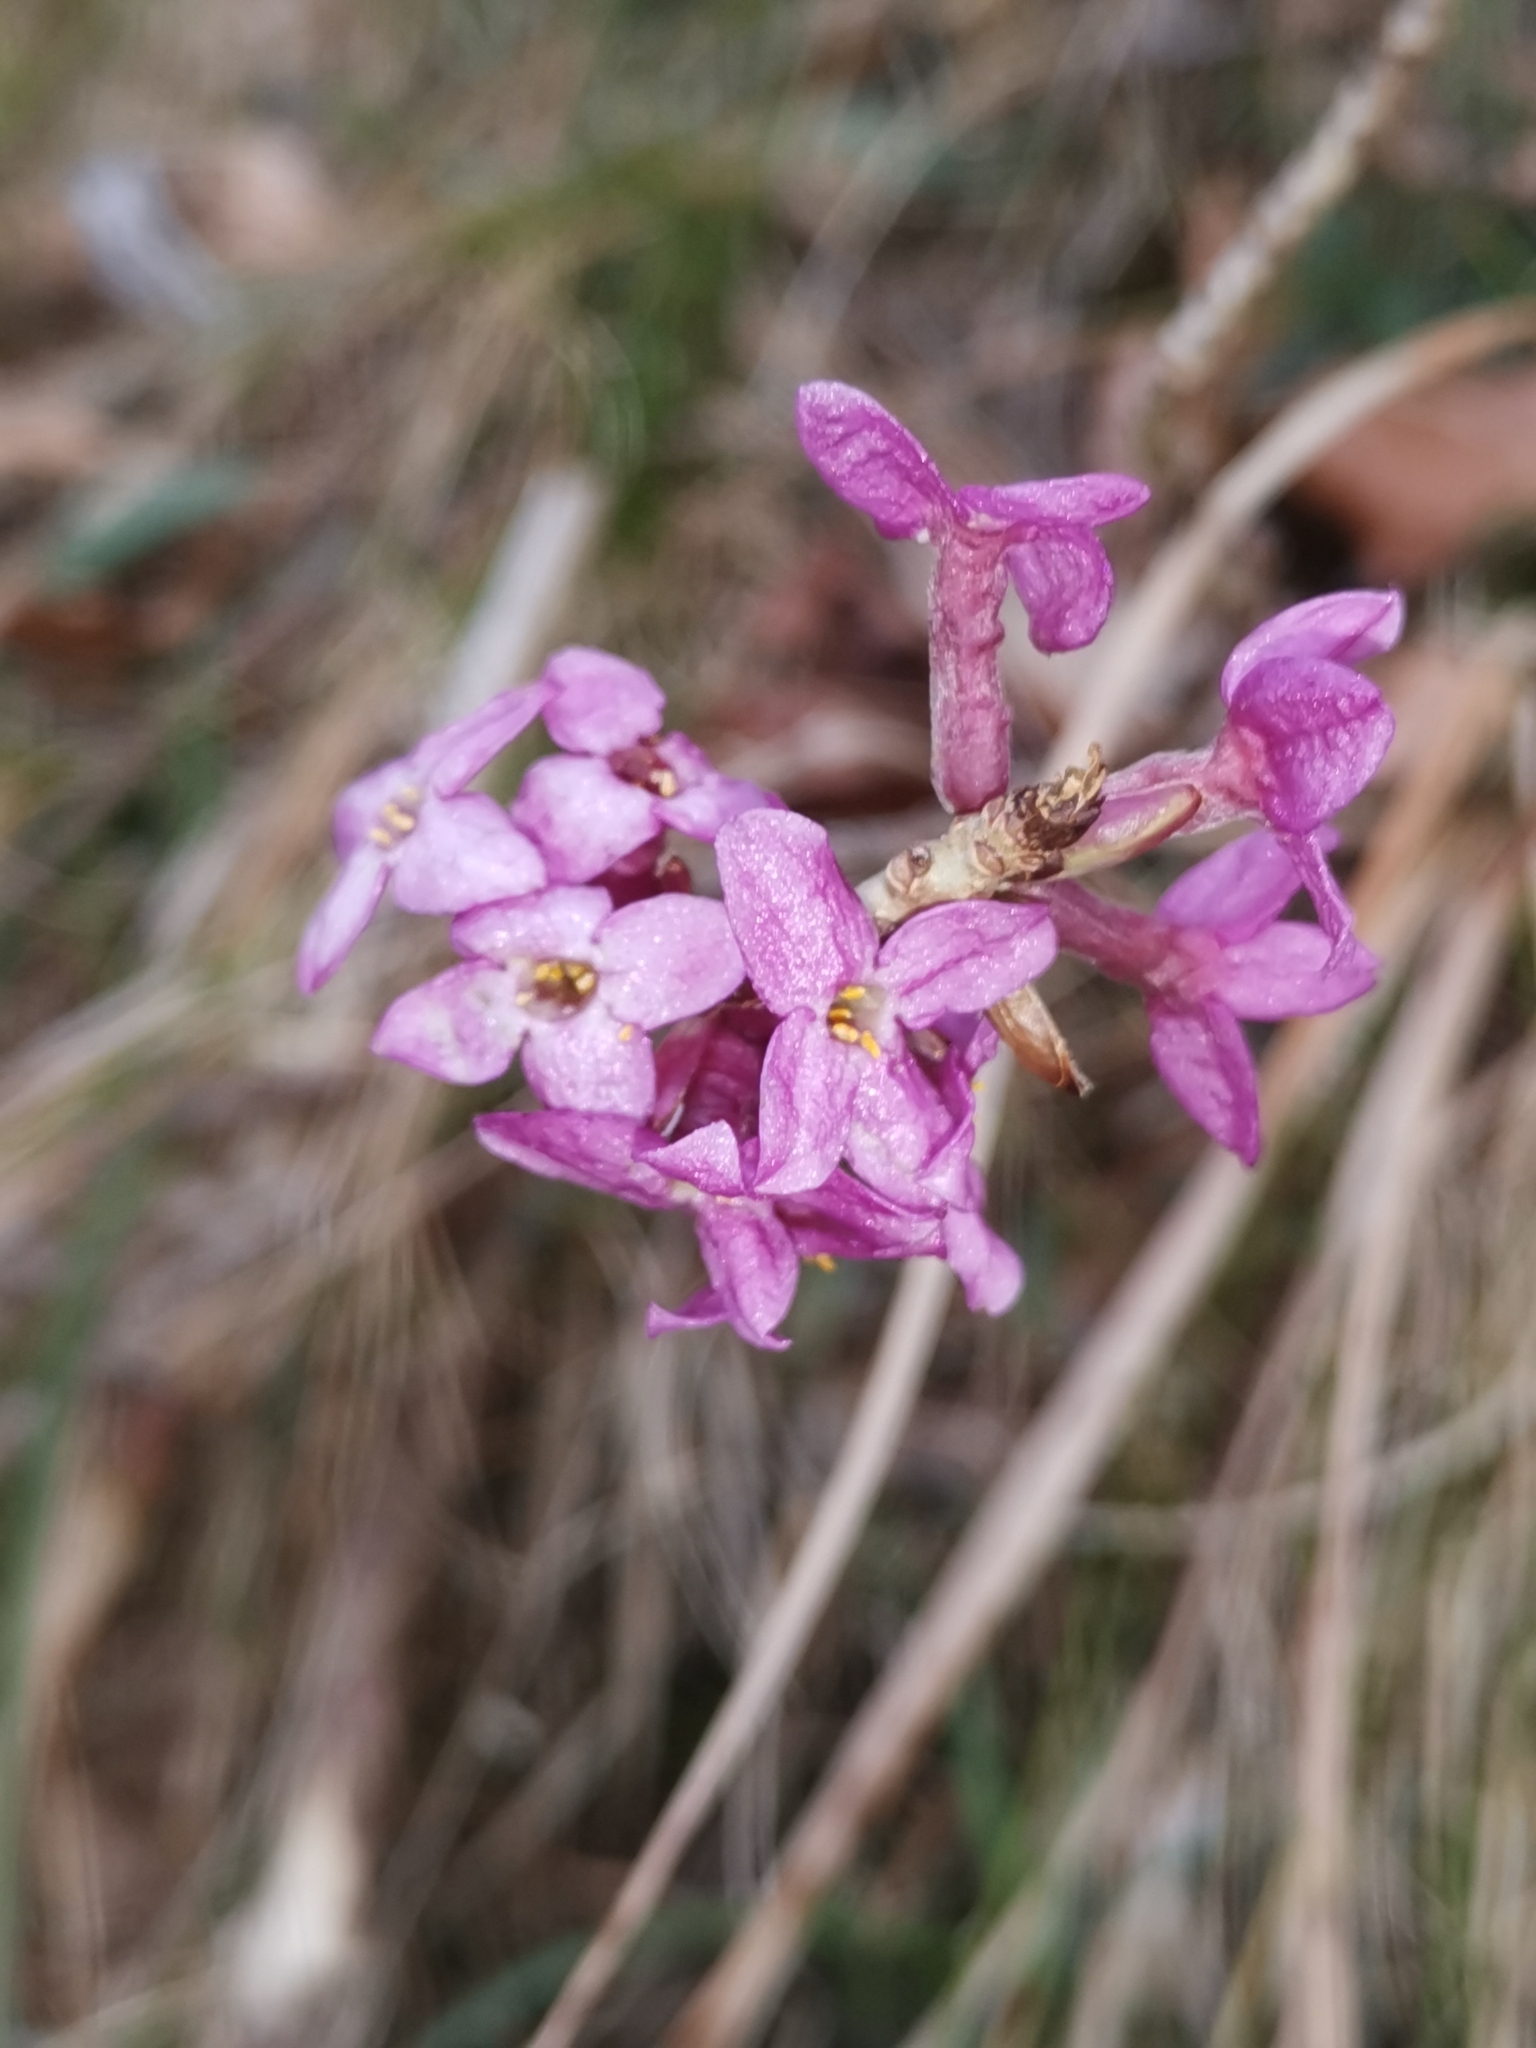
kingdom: Plantae
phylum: Tracheophyta
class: Magnoliopsida
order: Malvales
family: Thymelaeaceae
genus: Daphne
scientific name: Daphne mezereum
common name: Mezereon
